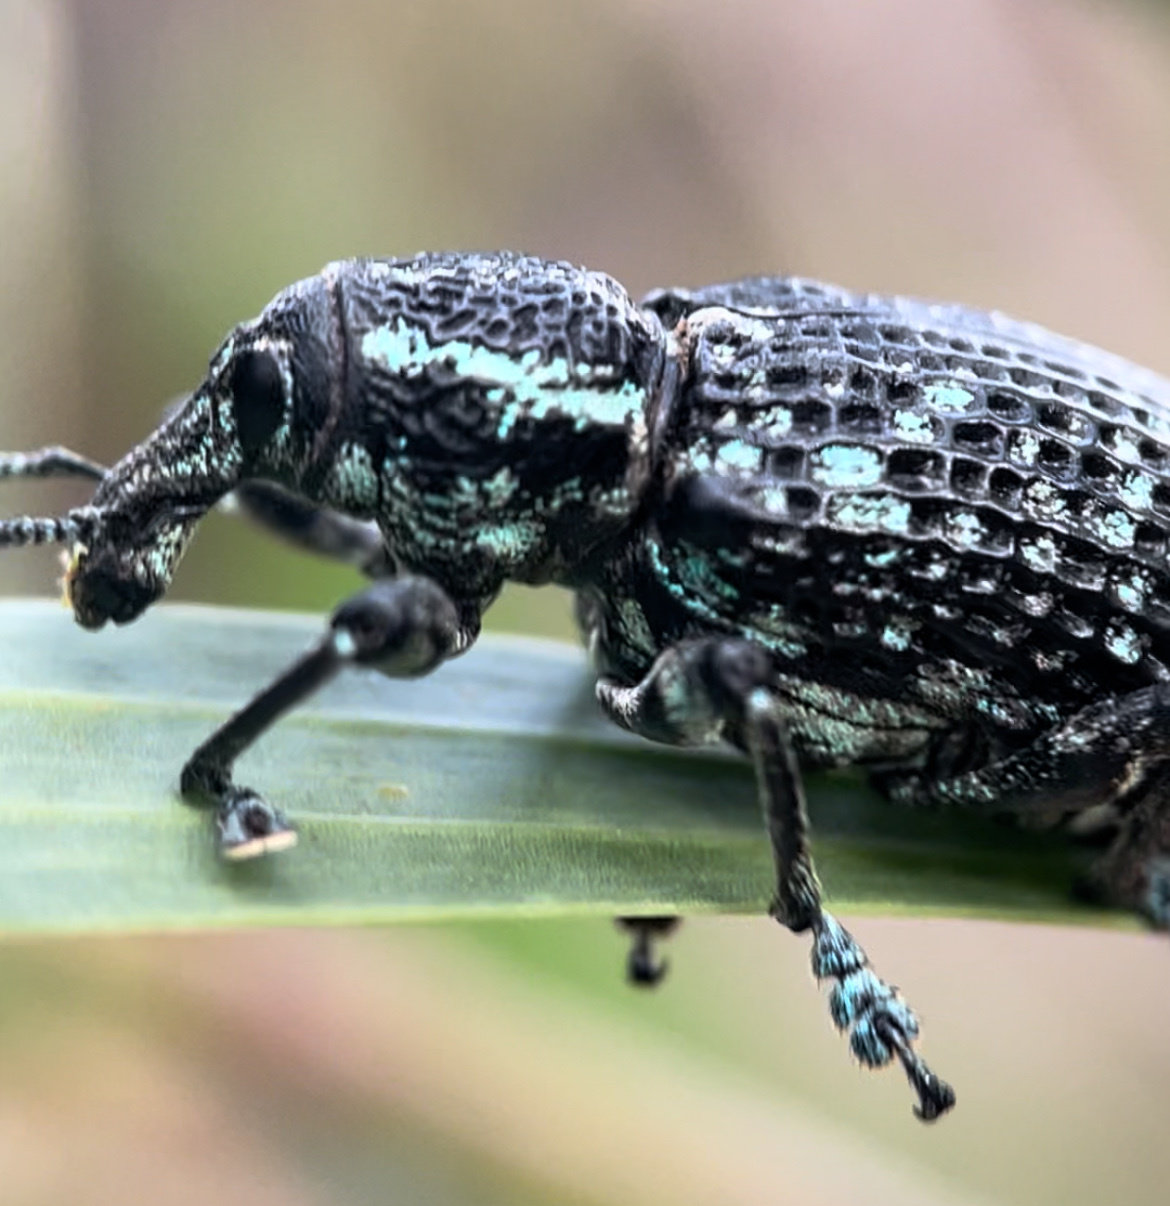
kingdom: Animalia
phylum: Arthropoda
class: Insecta
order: Coleoptera
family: Curculionidae
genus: Chrysolopus
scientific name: Chrysolopus spectabilis
